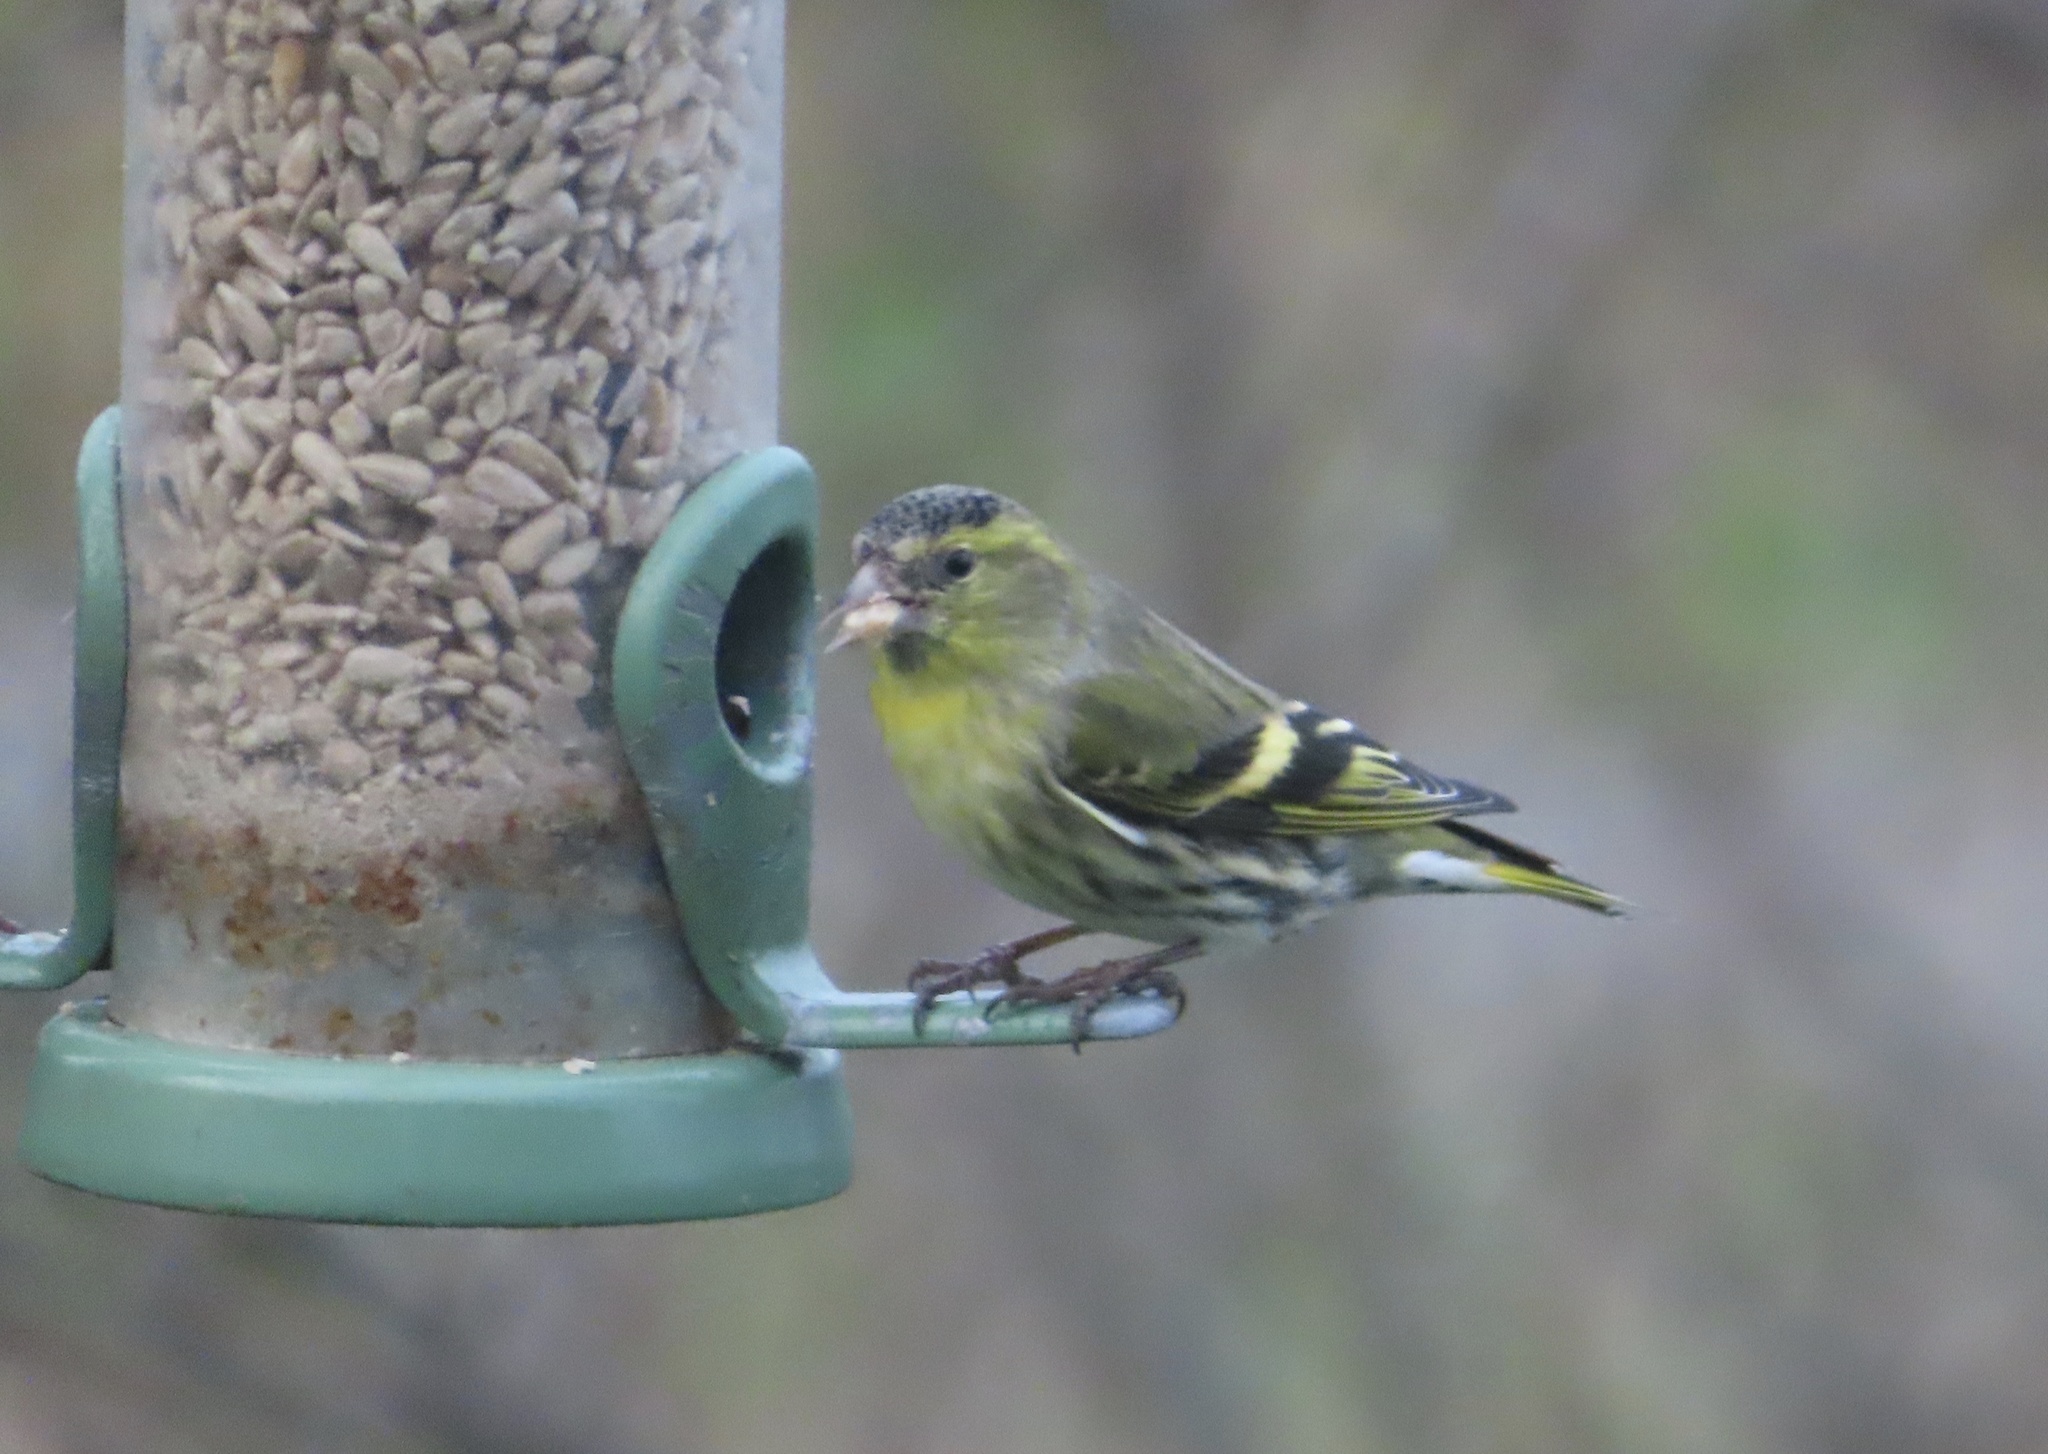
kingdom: Animalia
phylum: Chordata
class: Aves
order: Passeriformes
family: Fringillidae
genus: Spinus
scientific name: Spinus spinus
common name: Eurasian siskin
